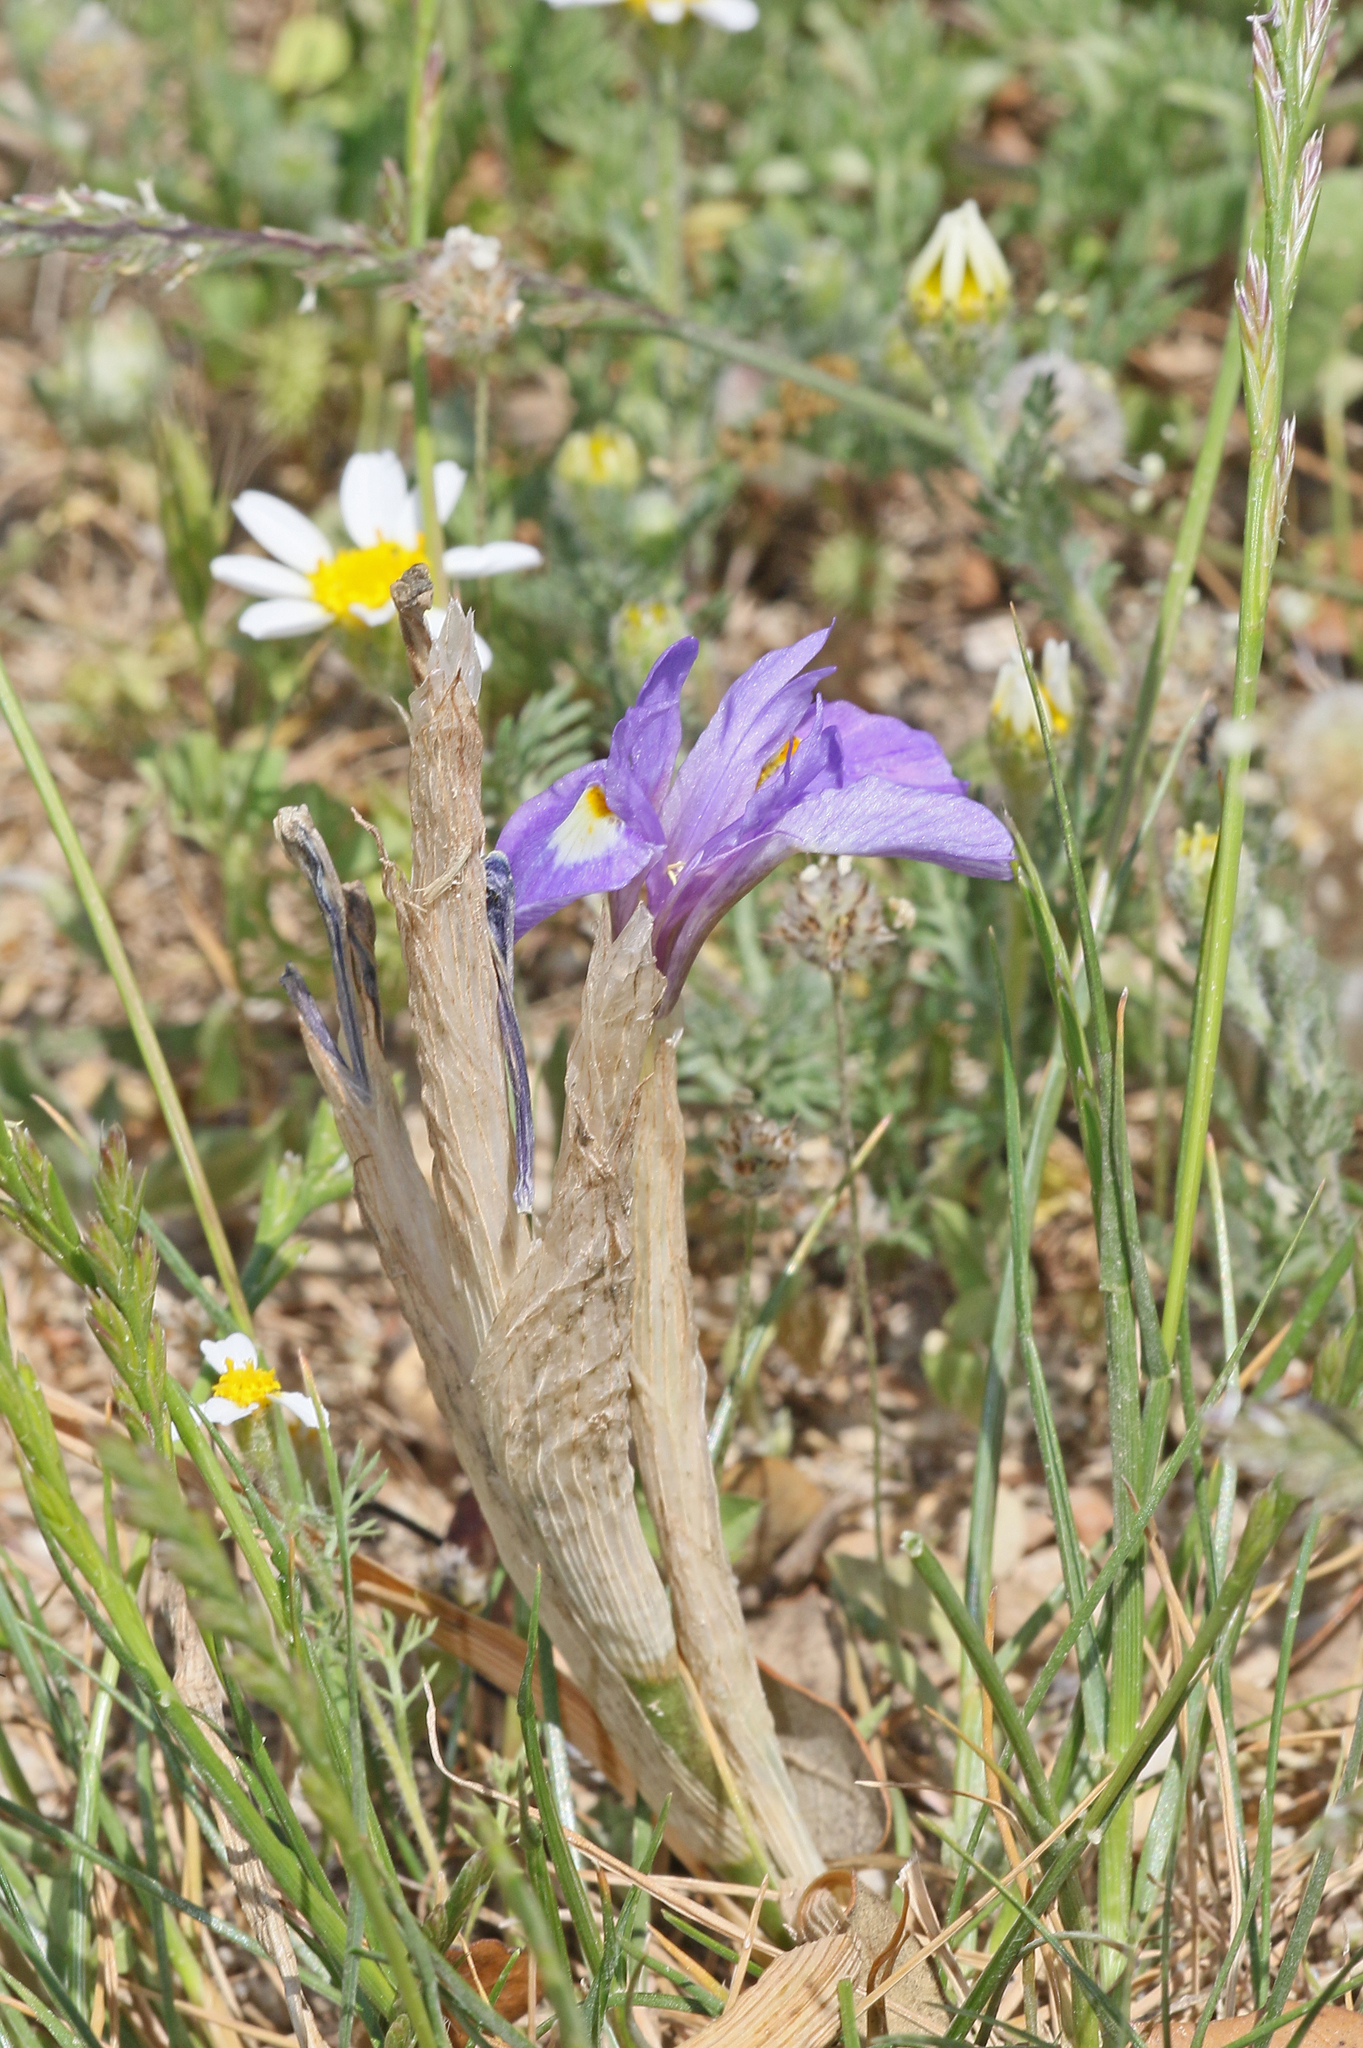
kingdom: Plantae
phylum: Tracheophyta
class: Liliopsida
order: Asparagales
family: Iridaceae
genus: Moraea
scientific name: Moraea sisyrinchium
